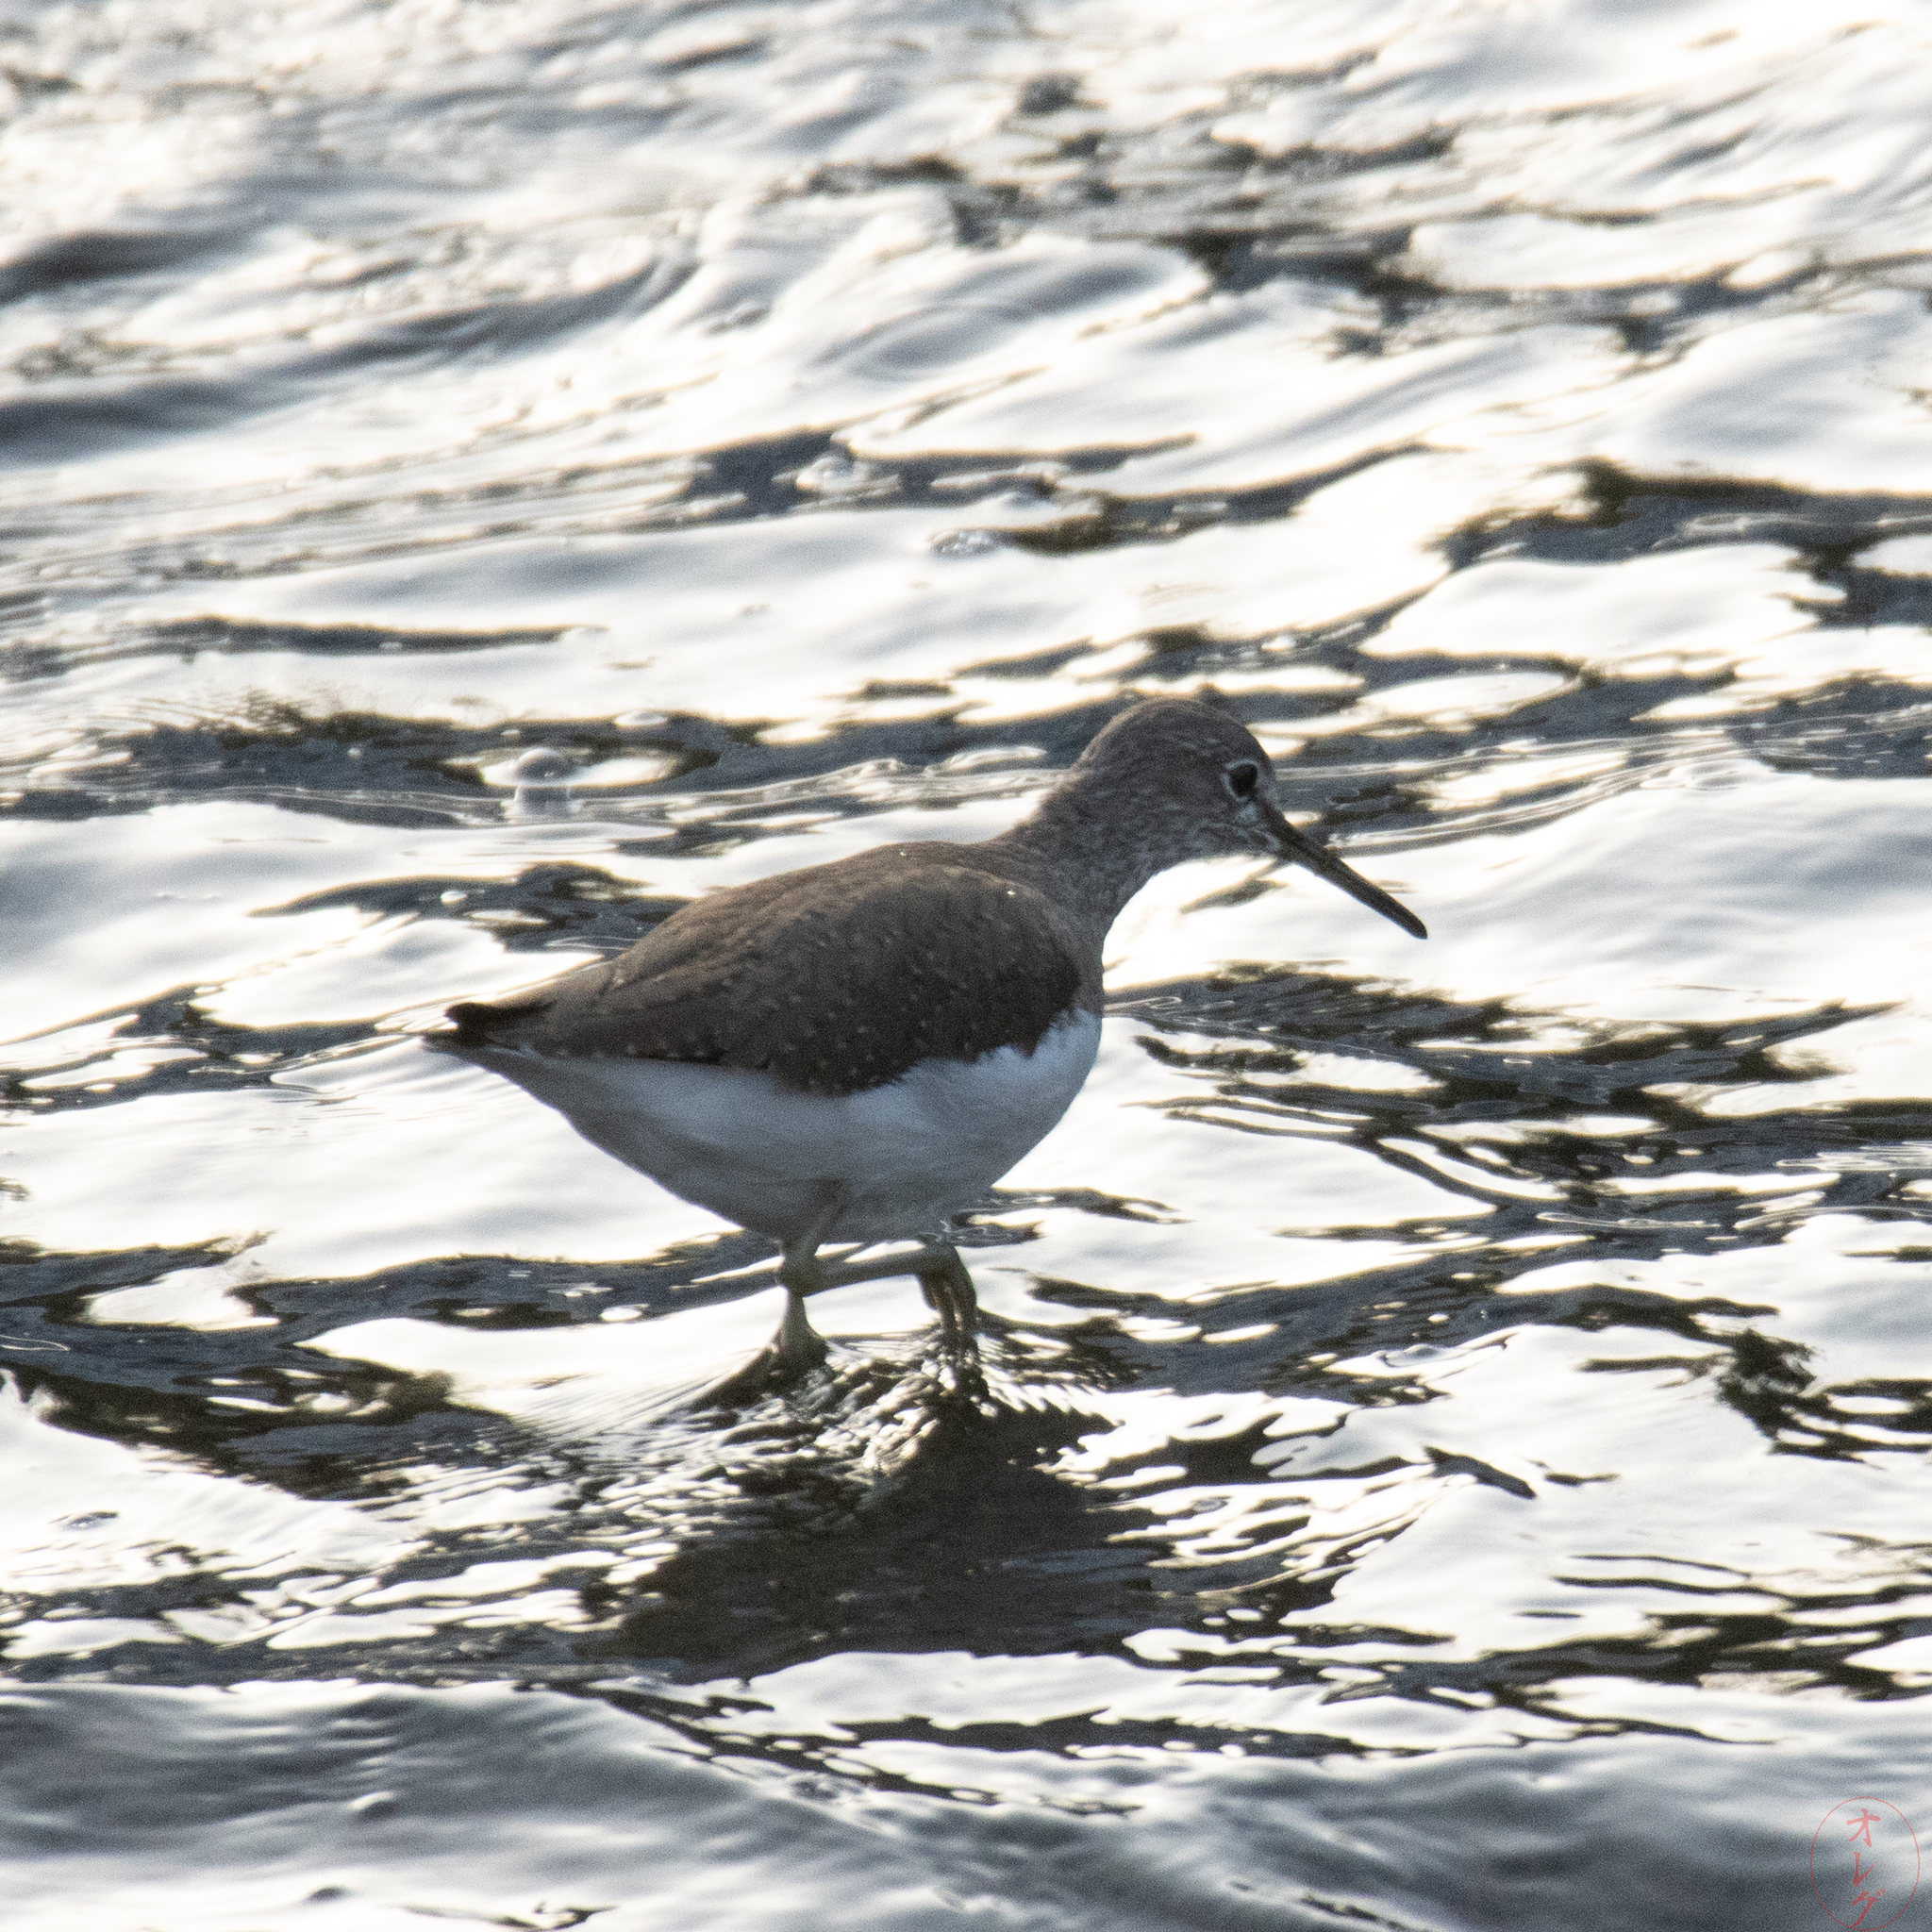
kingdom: Animalia
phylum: Chordata
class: Aves
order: Charadriiformes
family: Scolopacidae
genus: Tringa
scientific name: Tringa ochropus
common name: Green sandpiper
